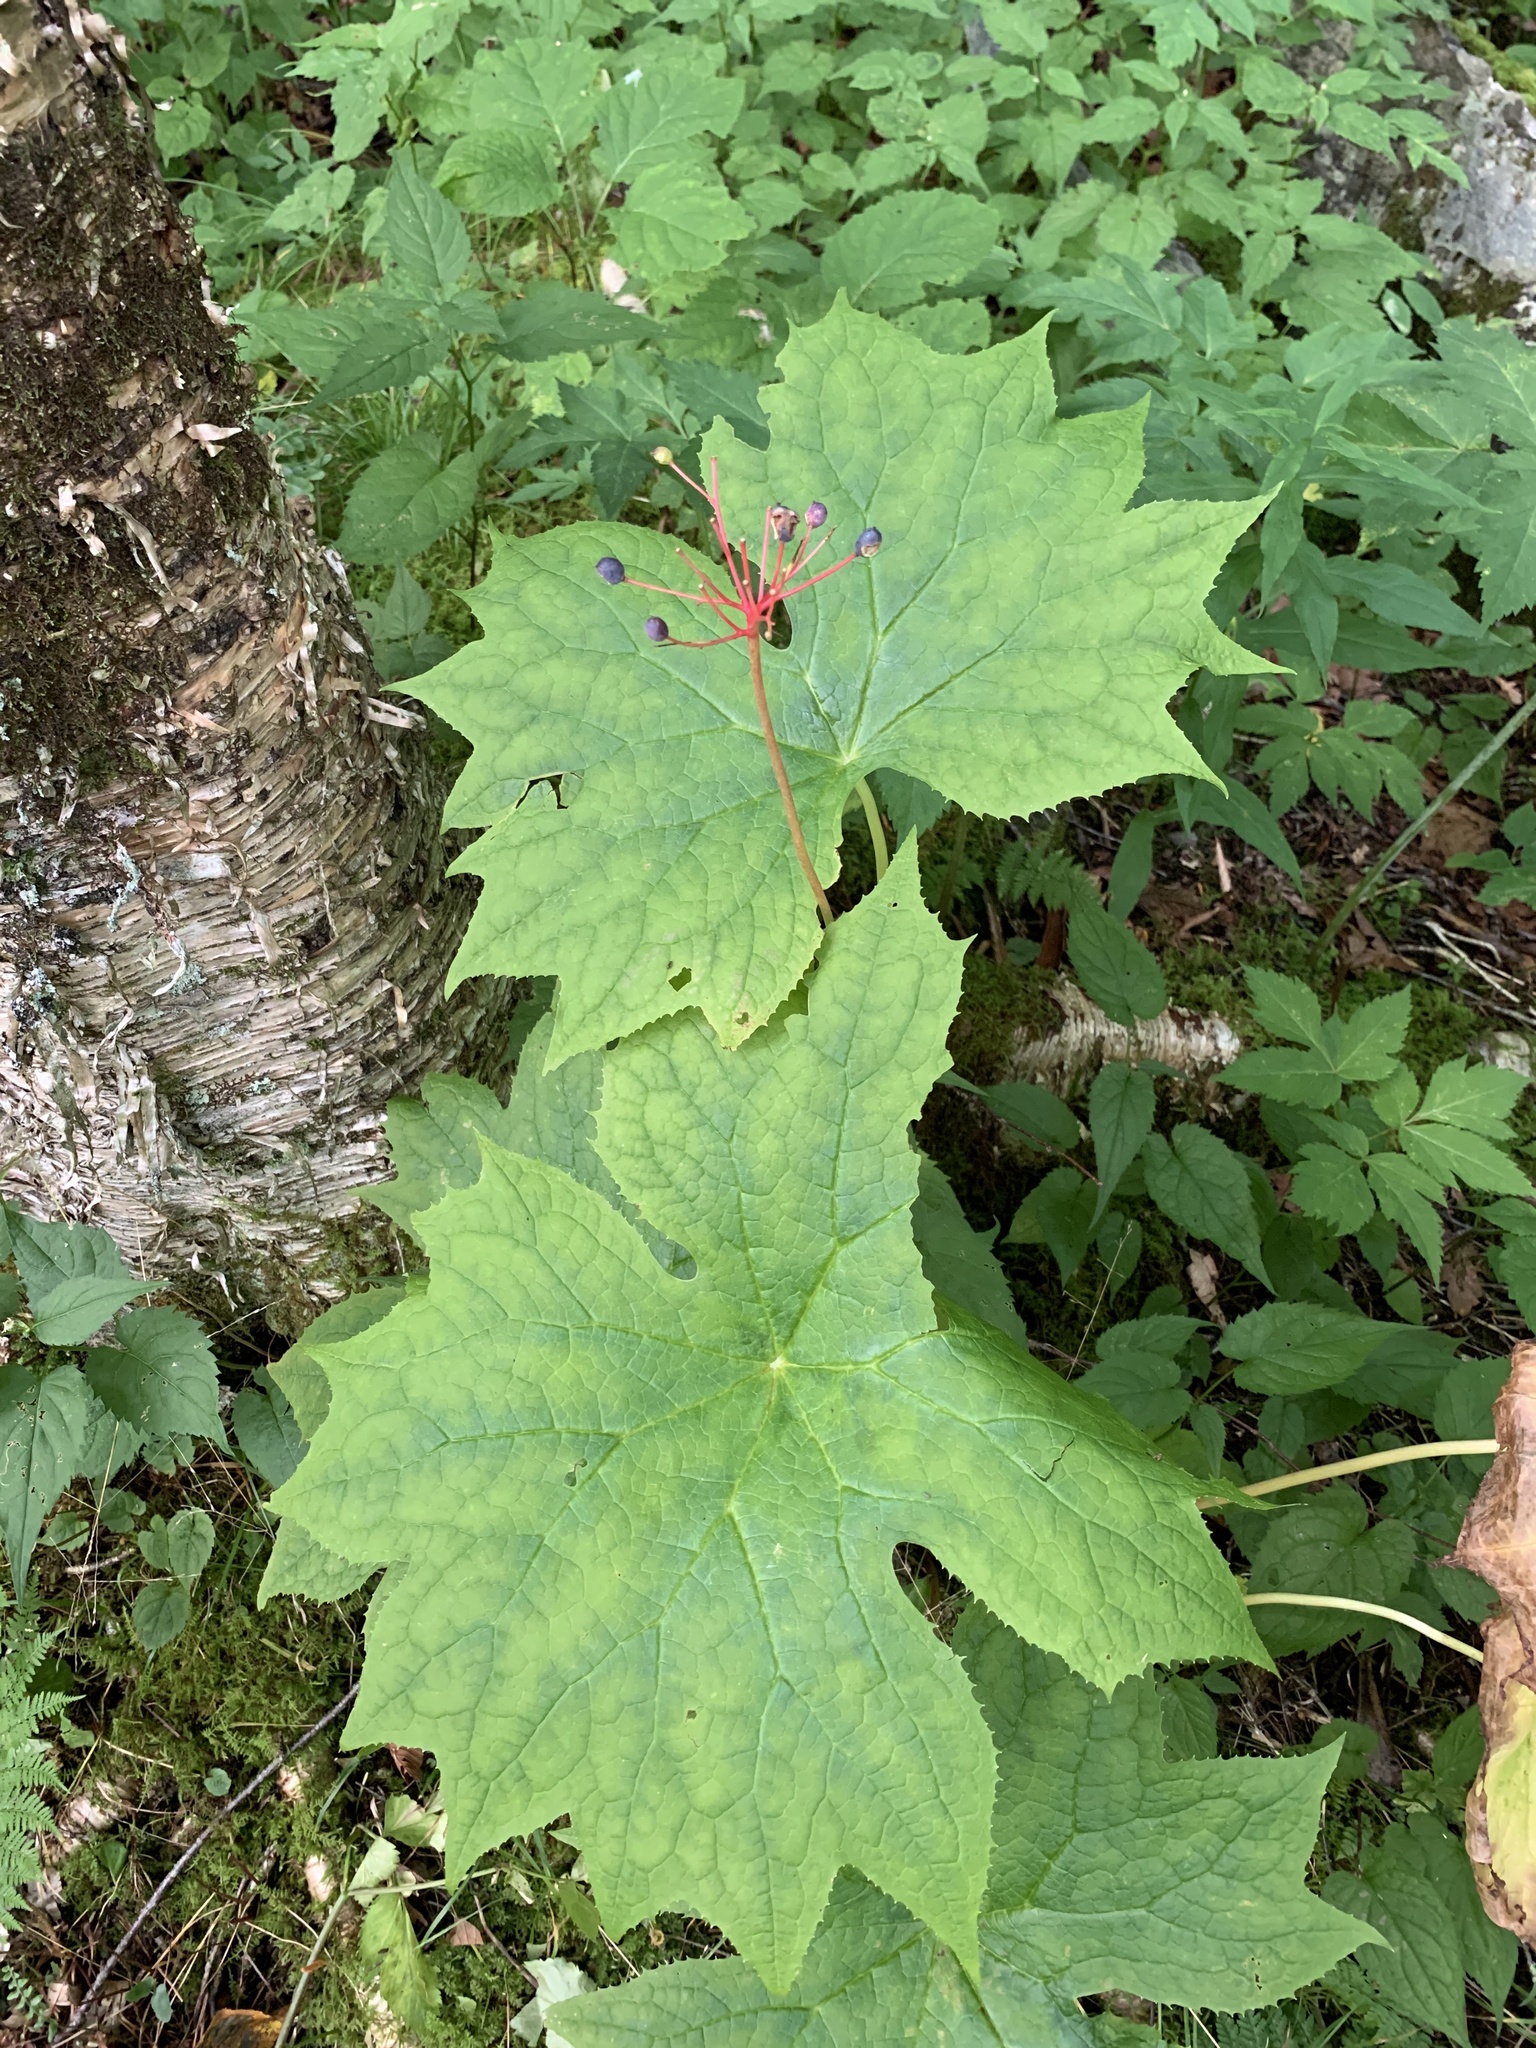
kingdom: Plantae
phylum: Tracheophyta
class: Magnoliopsida
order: Ranunculales
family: Berberidaceae
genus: Diphylleia
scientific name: Diphylleia cymosa
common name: Umbrella-leaf
